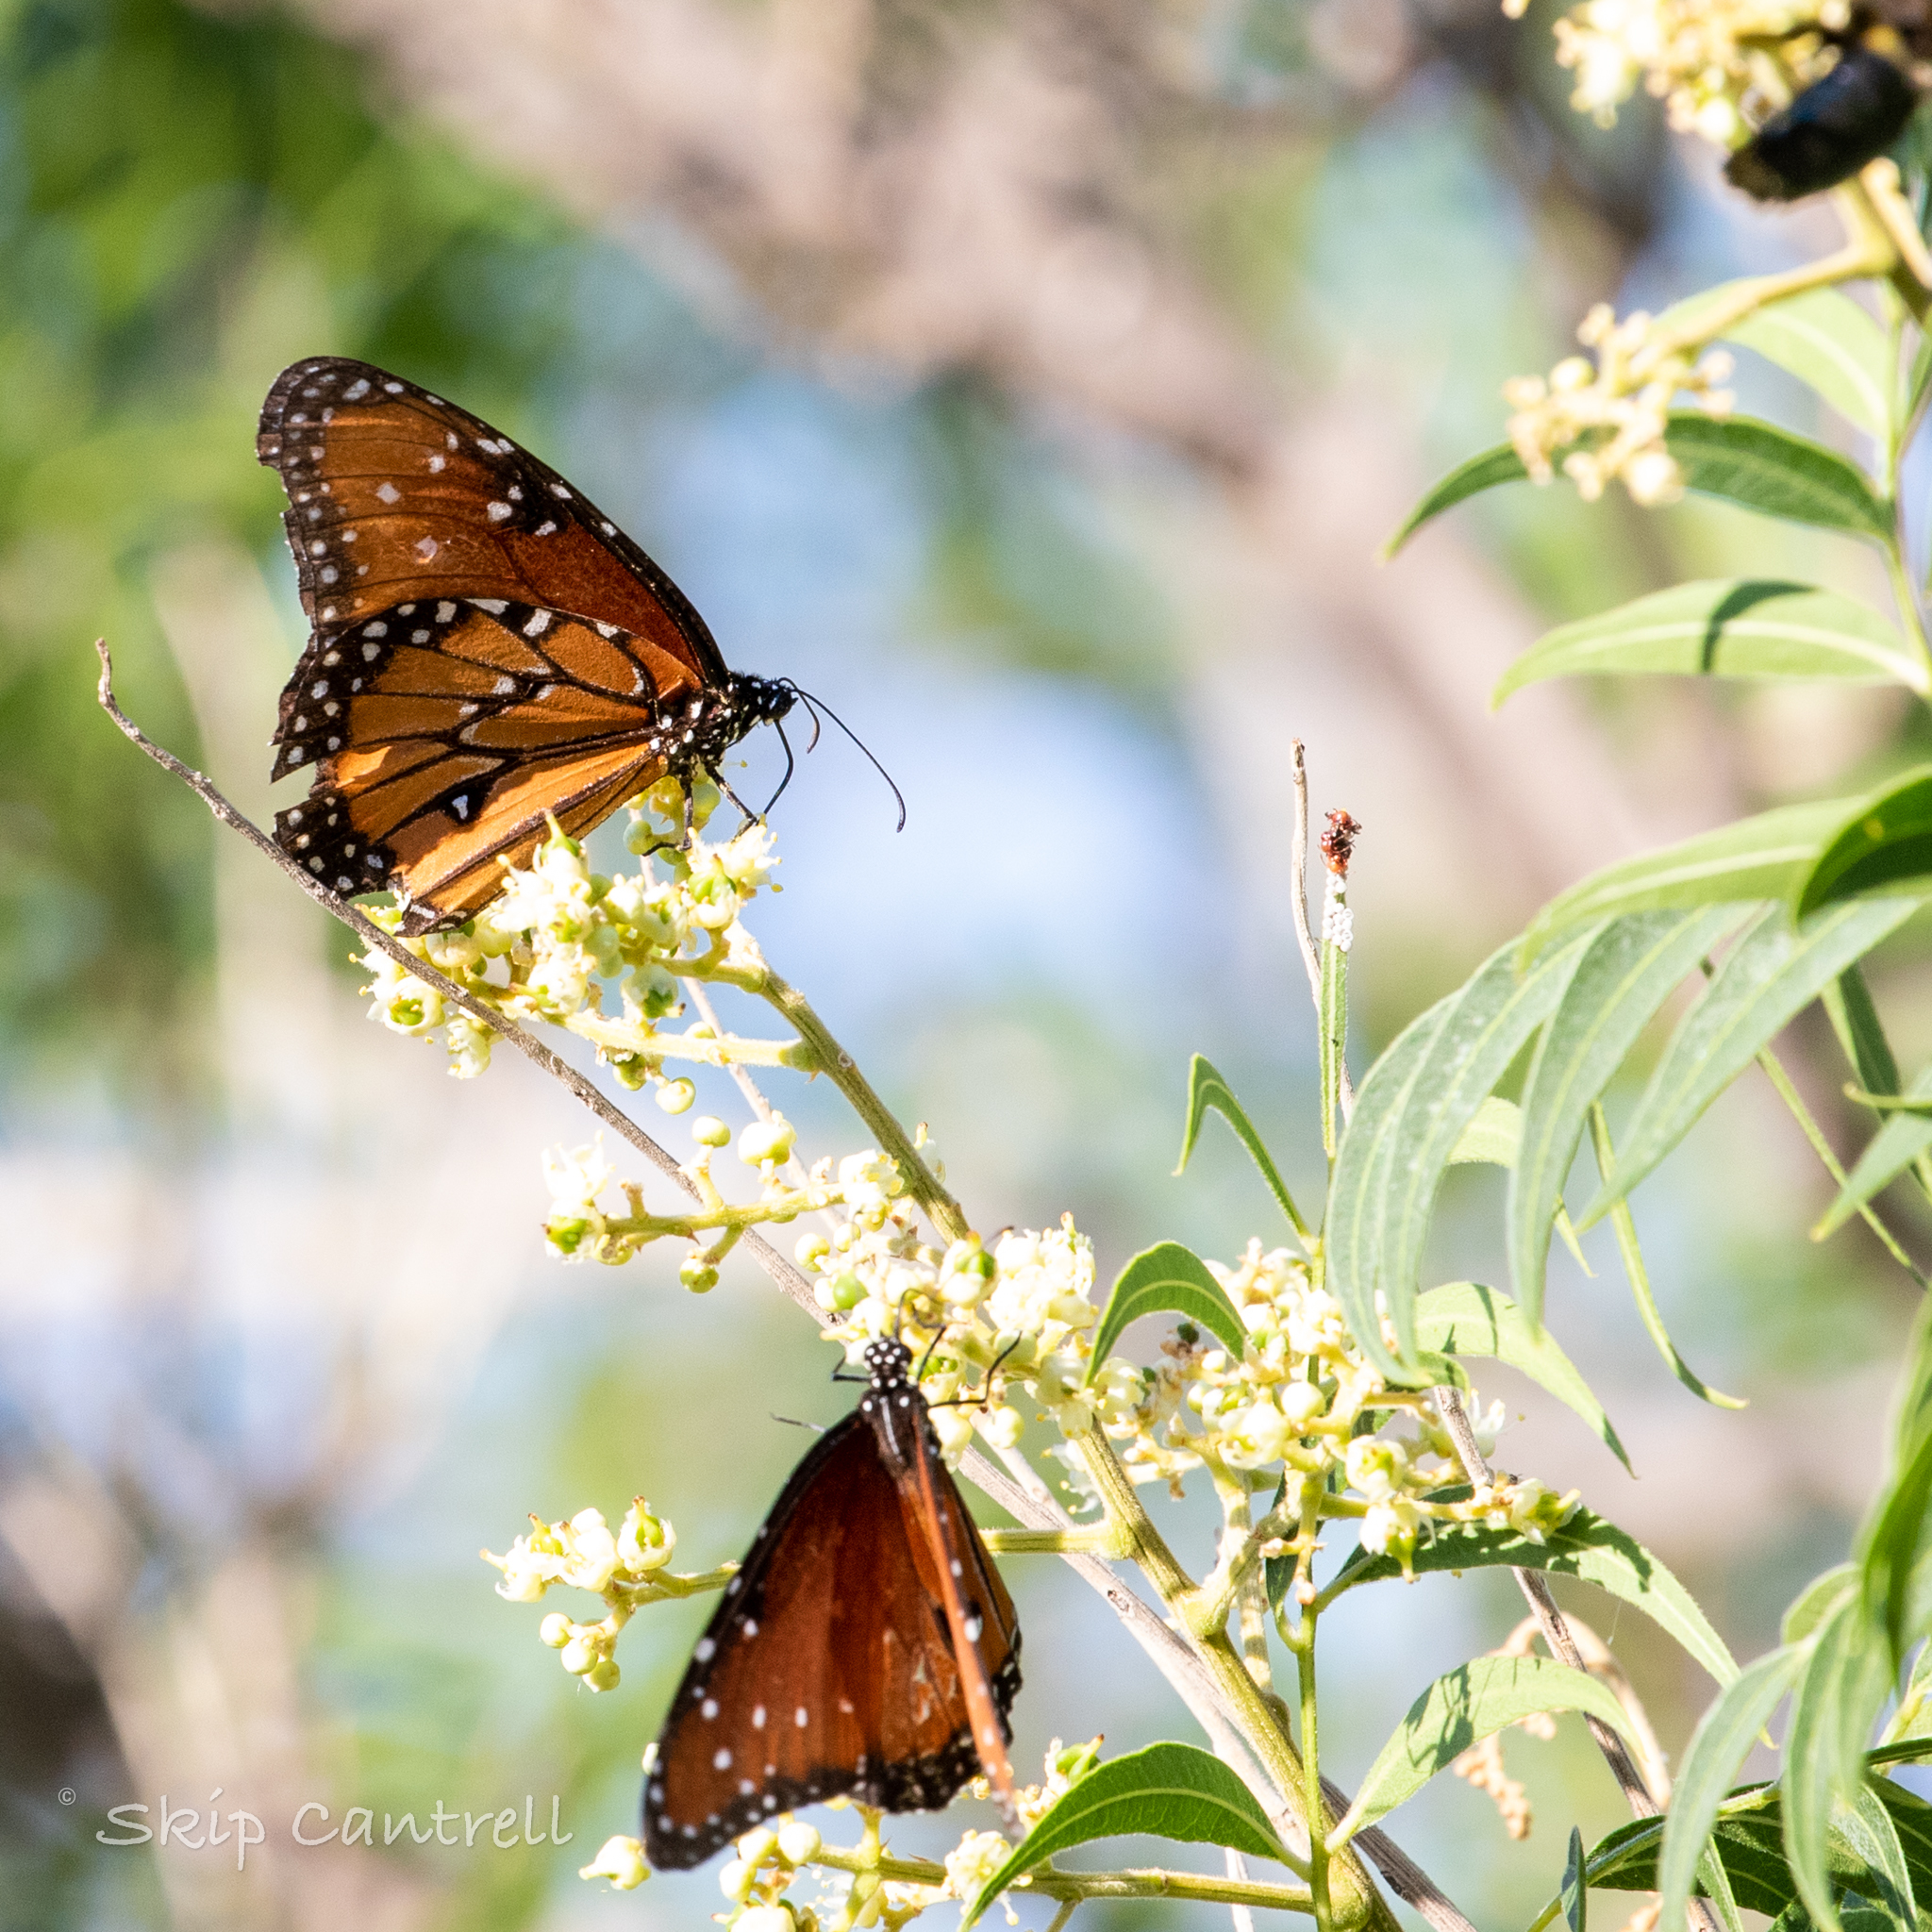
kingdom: Animalia
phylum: Arthropoda
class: Insecta
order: Lepidoptera
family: Nymphalidae
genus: Danaus
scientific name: Danaus gilippus
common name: Queen
